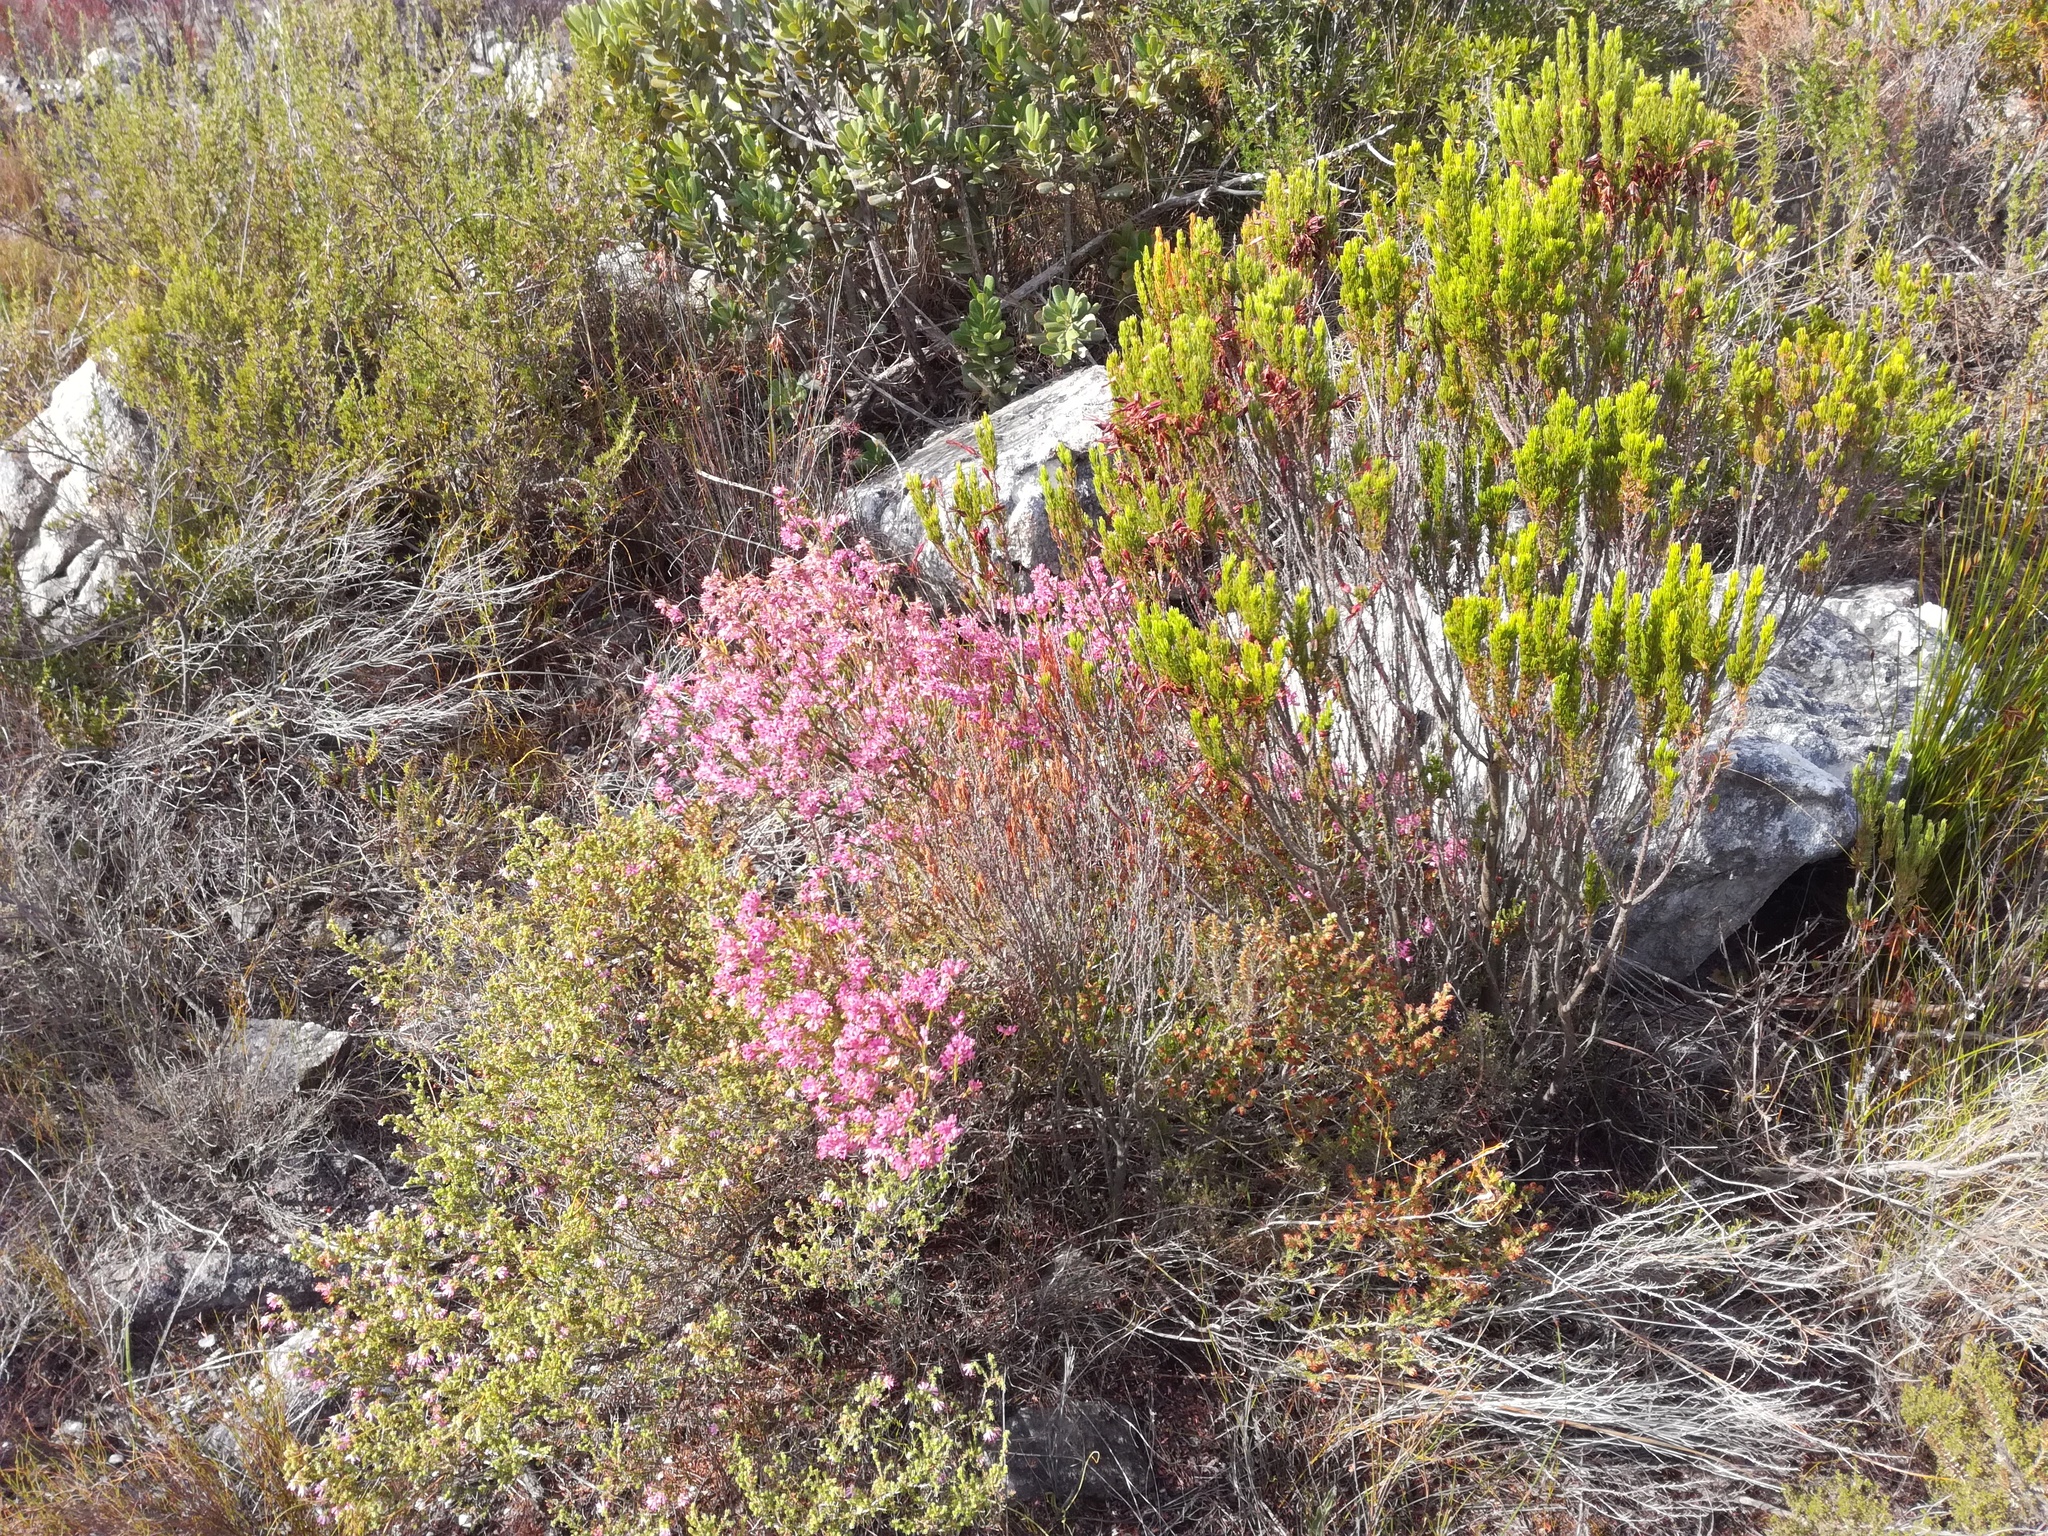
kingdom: Plantae
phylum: Tracheophyta
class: Magnoliopsida
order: Ericales
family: Ericaceae
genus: Erica
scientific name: Erica corifolia
